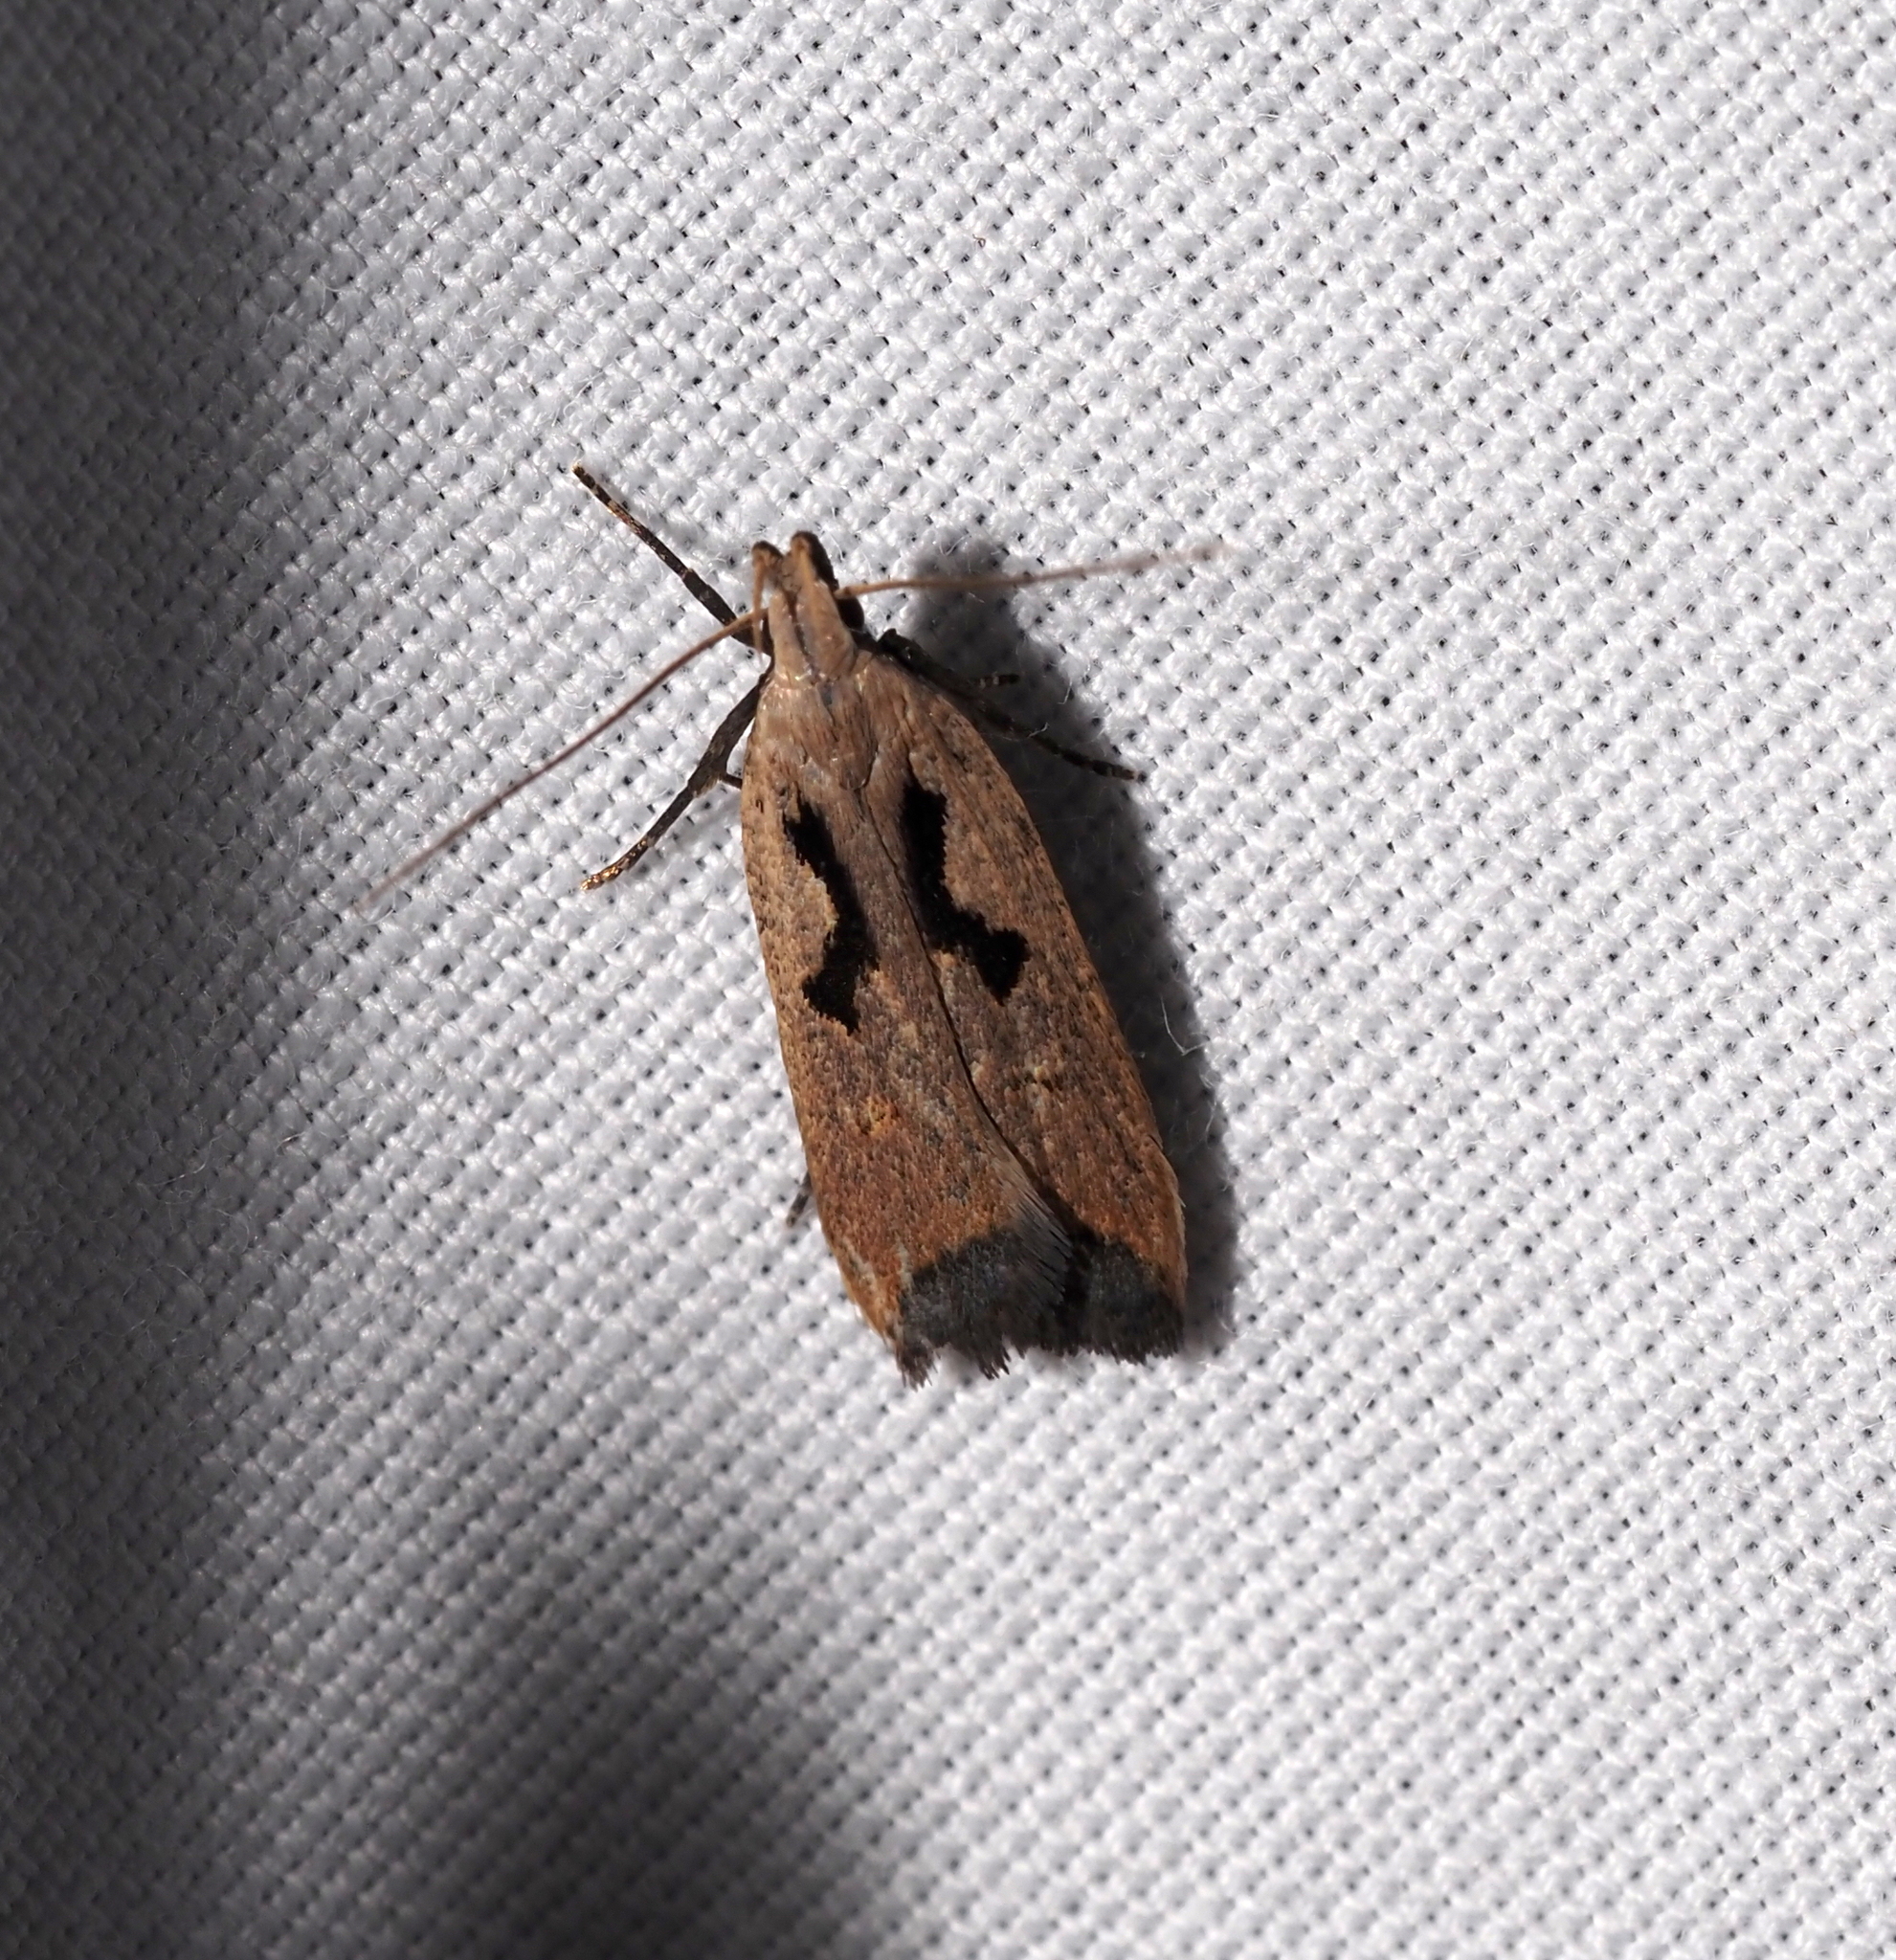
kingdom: Animalia
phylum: Arthropoda
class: Insecta
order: Lepidoptera
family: Gelechiidae
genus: Dichomeris
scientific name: Dichomeris laetitia
